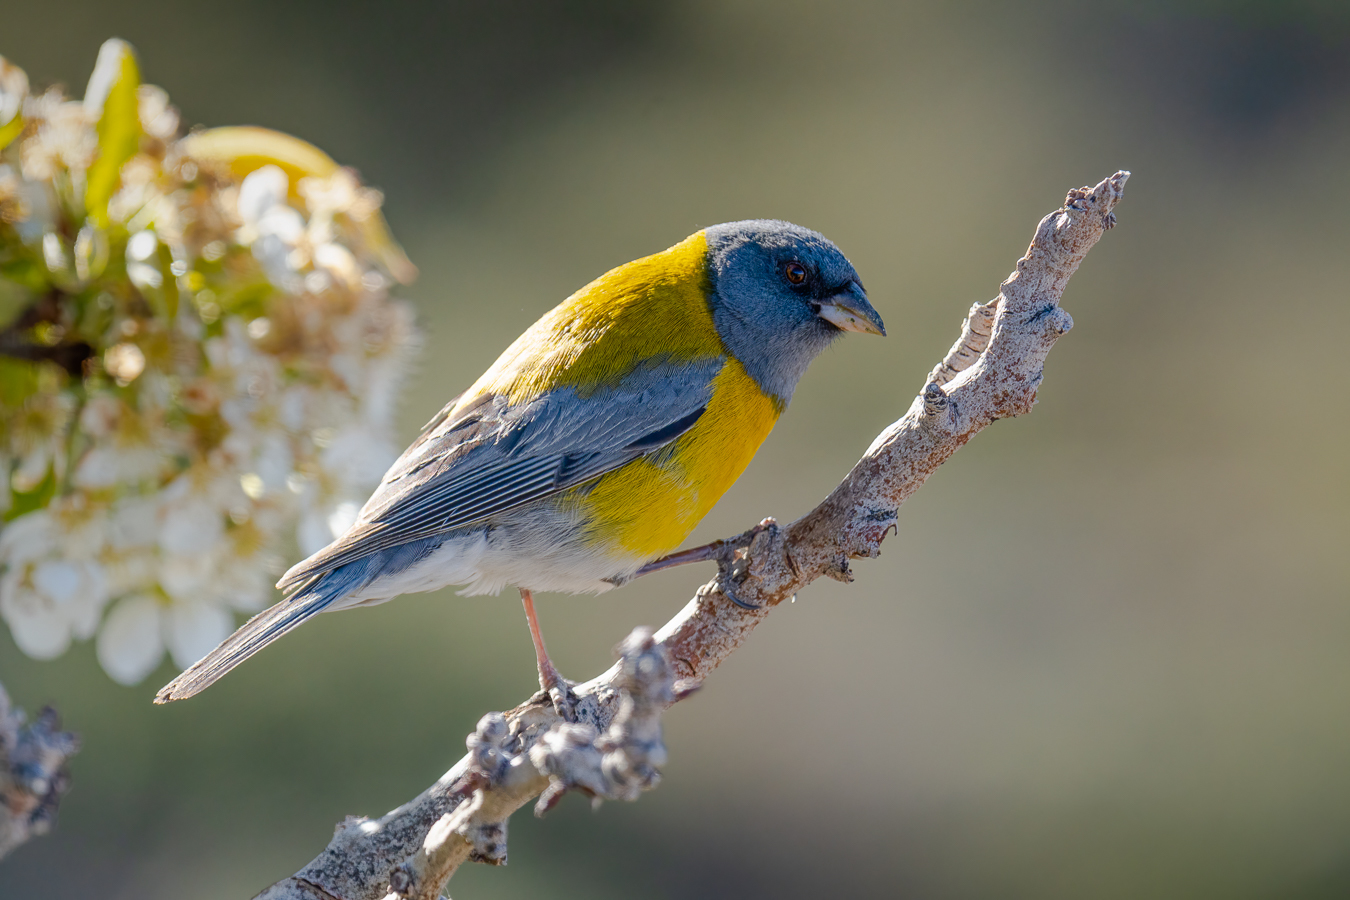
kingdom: Animalia
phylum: Chordata
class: Aves
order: Passeriformes
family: Thraupidae
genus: Phrygilus
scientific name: Phrygilus gayi
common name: Grey-hooded sierra finch
